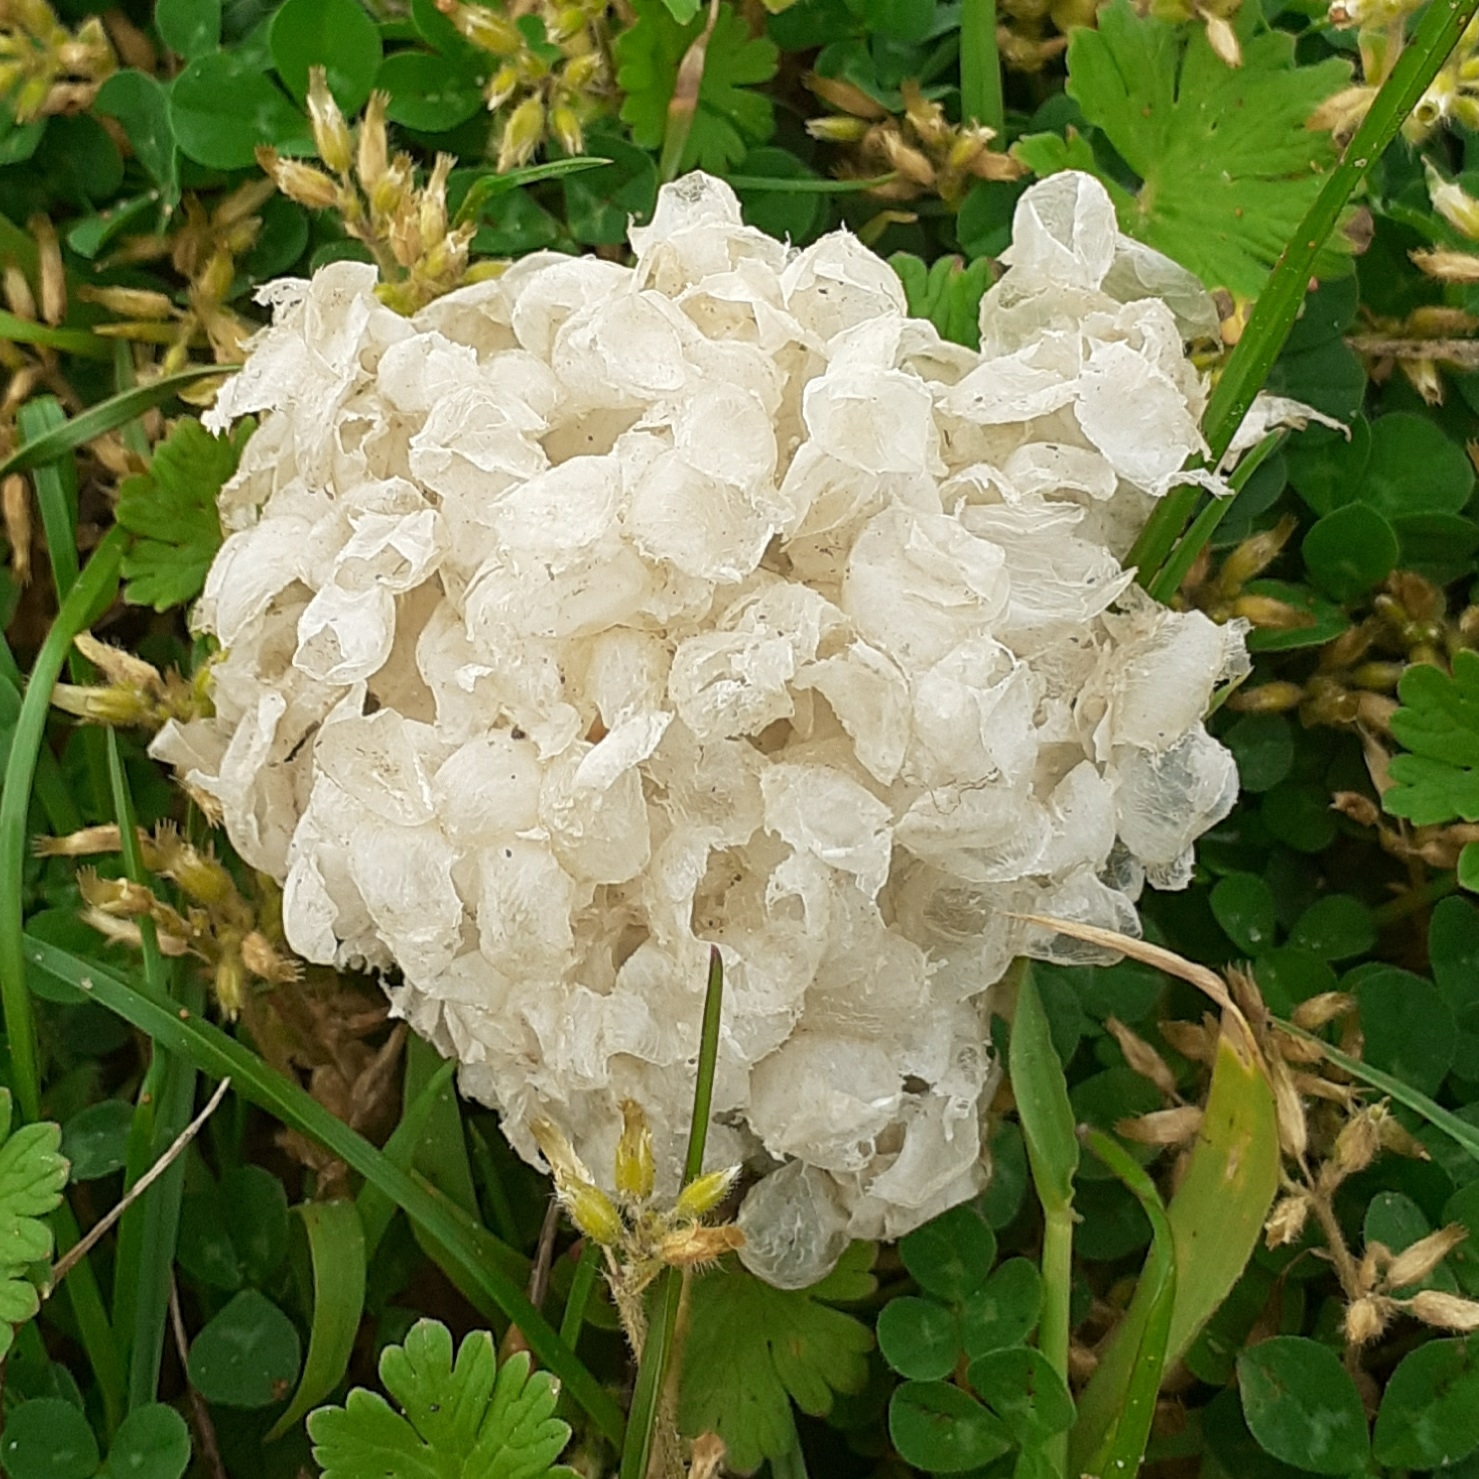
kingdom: Animalia
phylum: Mollusca
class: Gastropoda
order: Neogastropoda
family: Buccinidae
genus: Buccinum
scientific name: Buccinum undatum
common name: Common whelk
